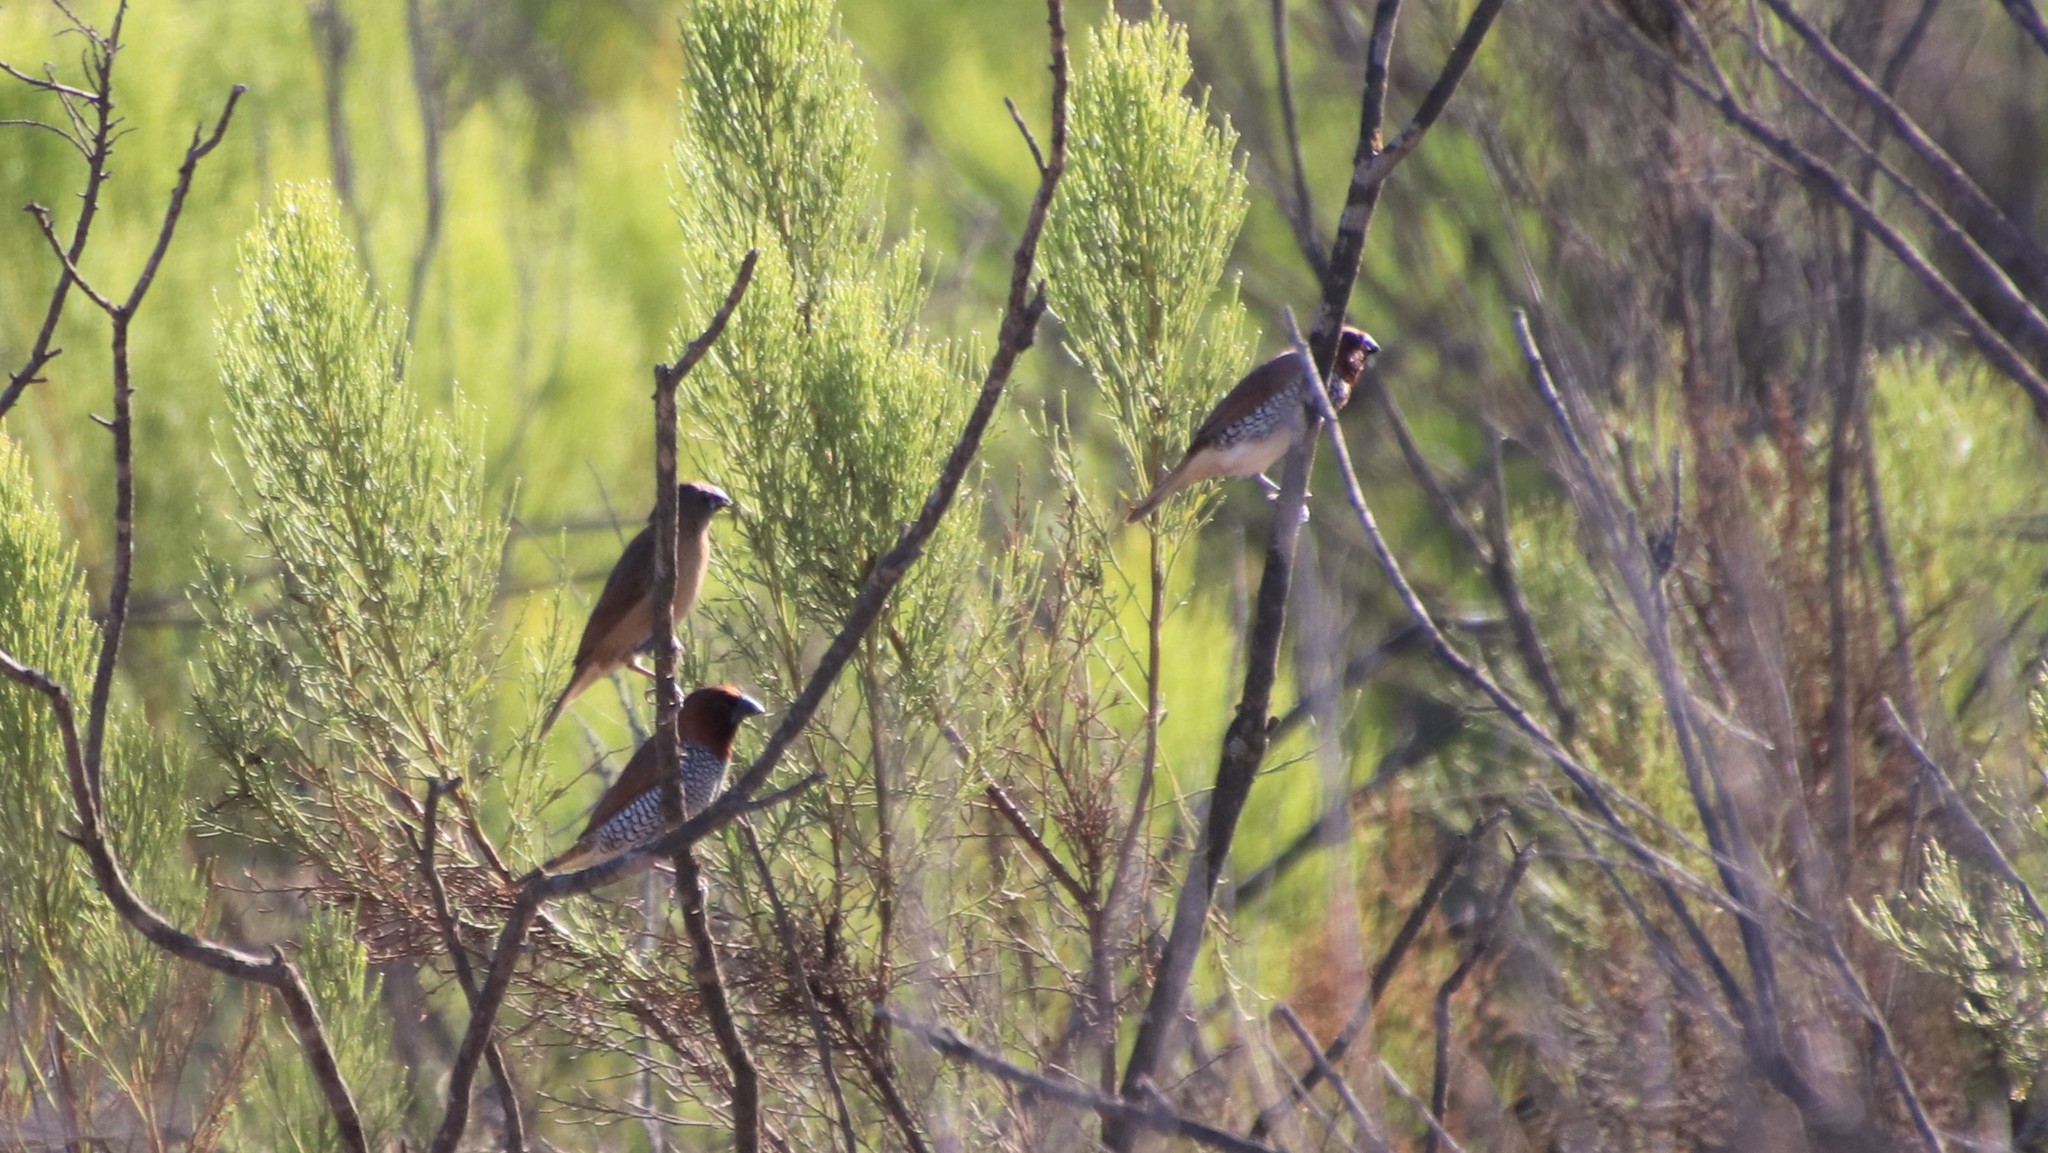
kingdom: Animalia
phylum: Chordata
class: Aves
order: Passeriformes
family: Estrildidae
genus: Lonchura
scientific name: Lonchura punctulata
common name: Scaly-breasted munia
